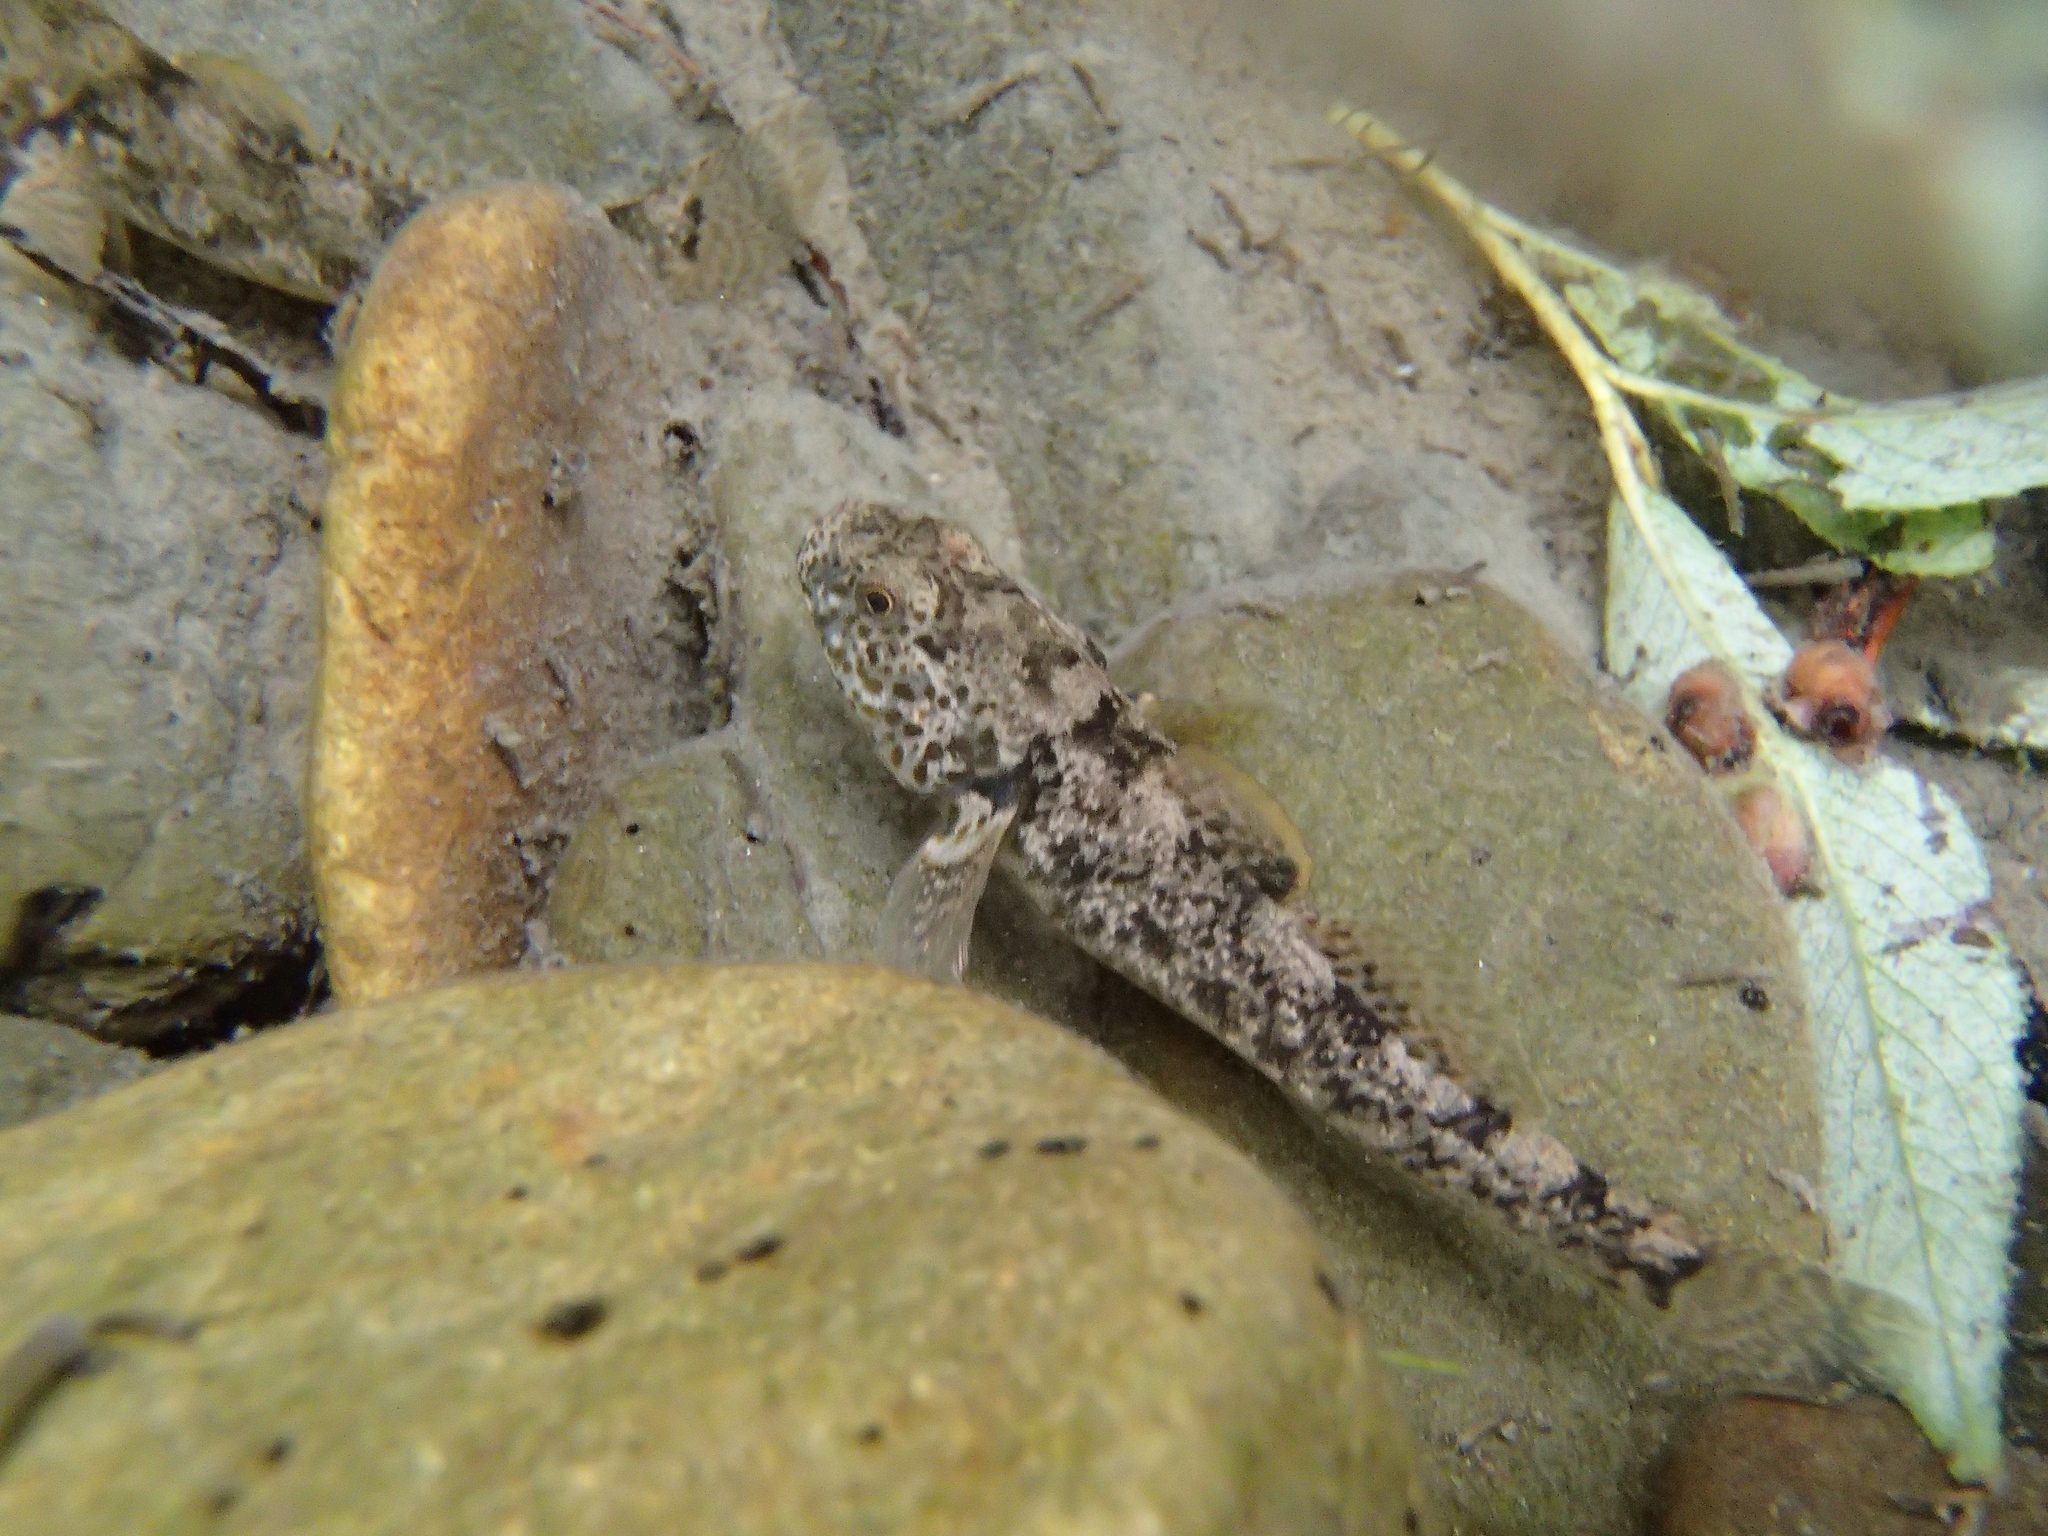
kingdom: Animalia
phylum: Chordata
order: Perciformes
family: Eleotridae
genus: Gobiomorphus
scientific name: Gobiomorphus breviceps
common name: Upland bully
